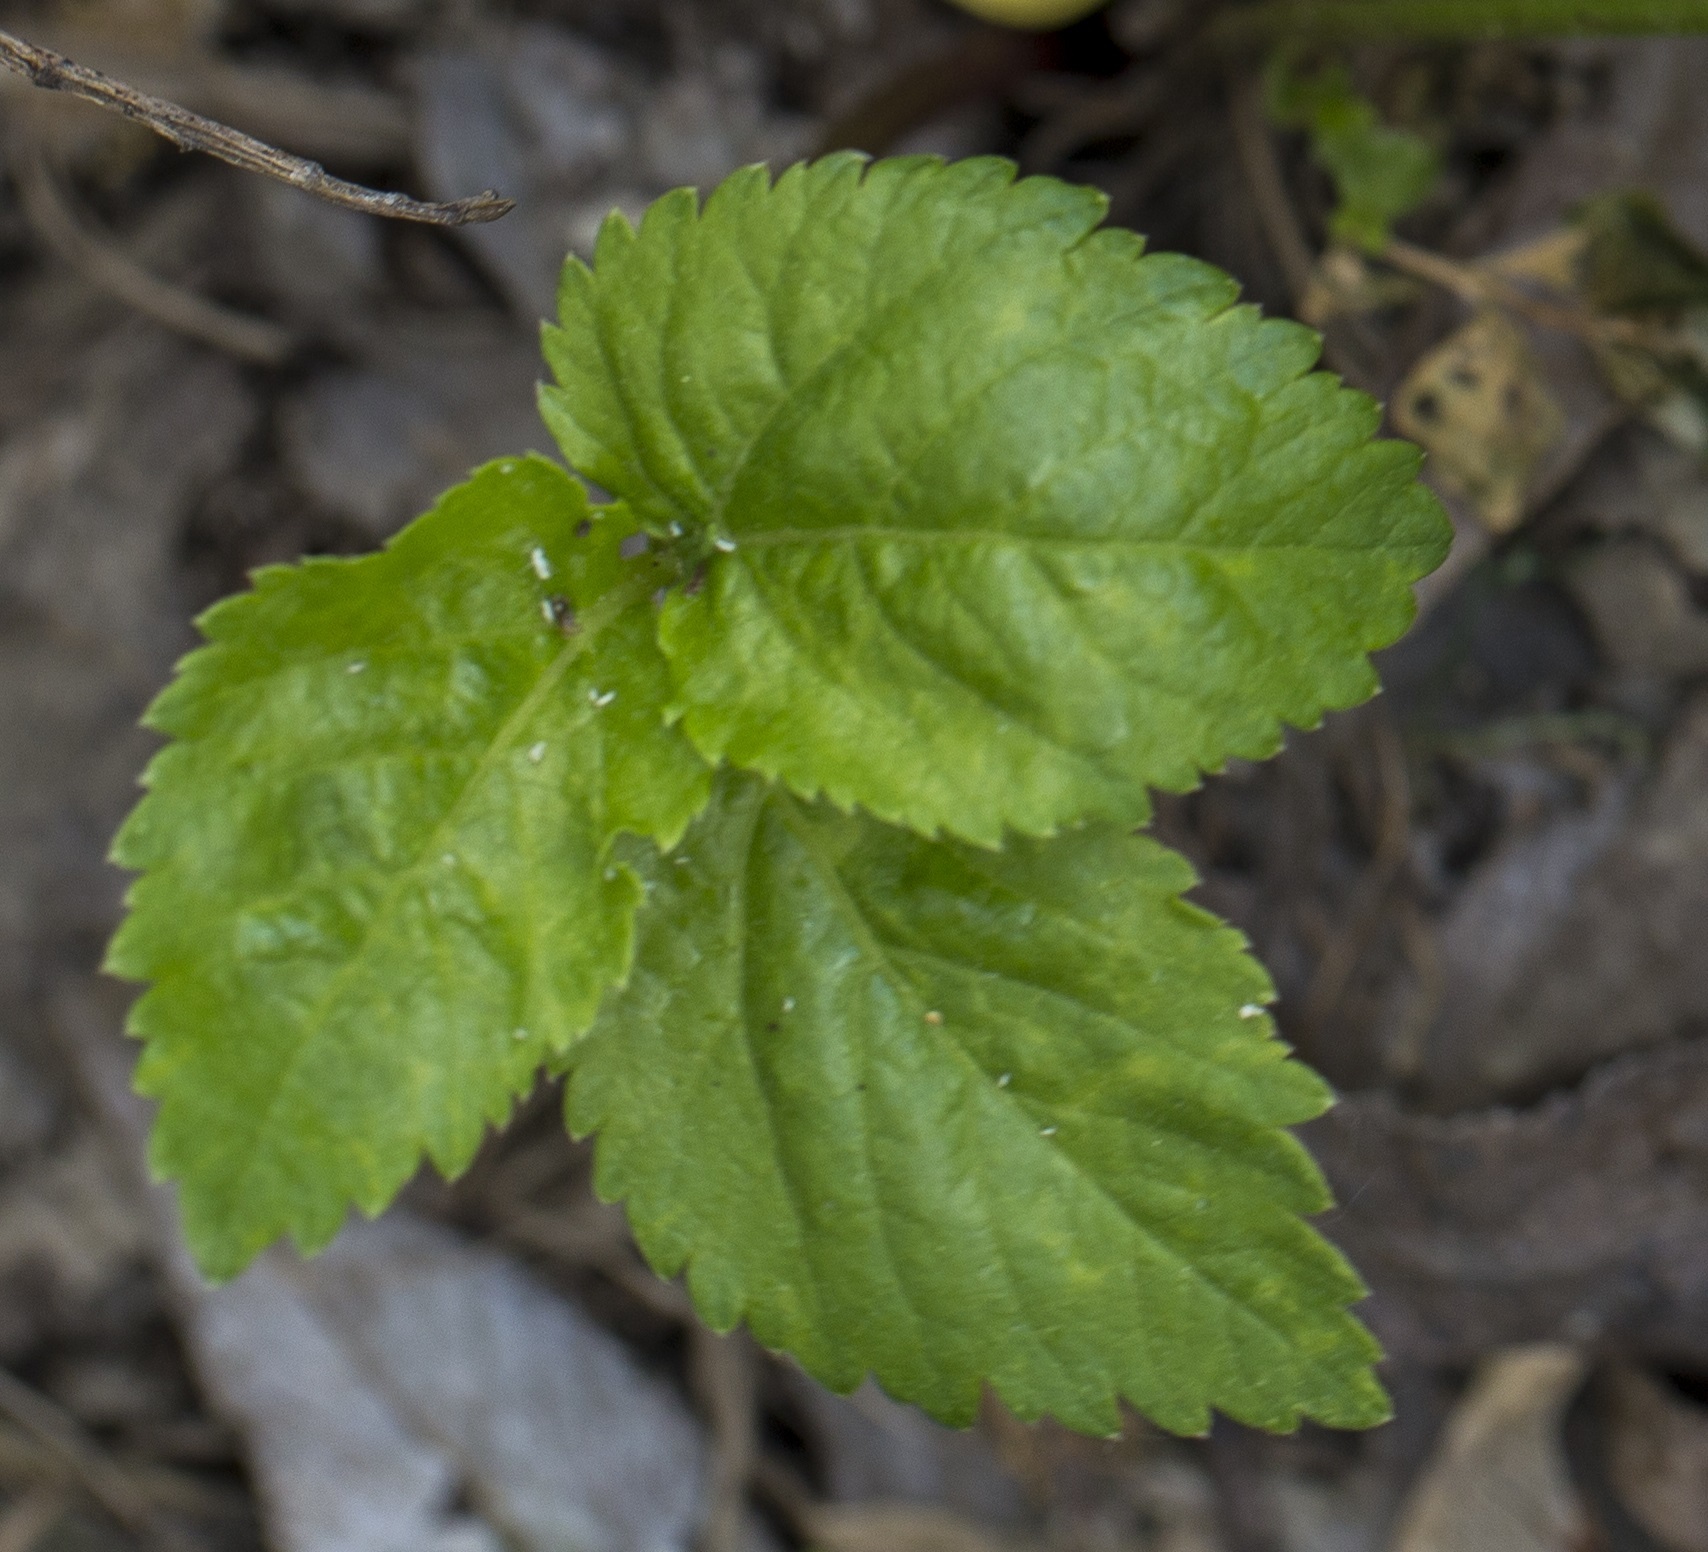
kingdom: Plantae
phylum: Tracheophyta
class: Magnoliopsida
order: Apiales
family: Apiaceae
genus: Aegopodium
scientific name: Aegopodium podagraria
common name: Ground-elder
